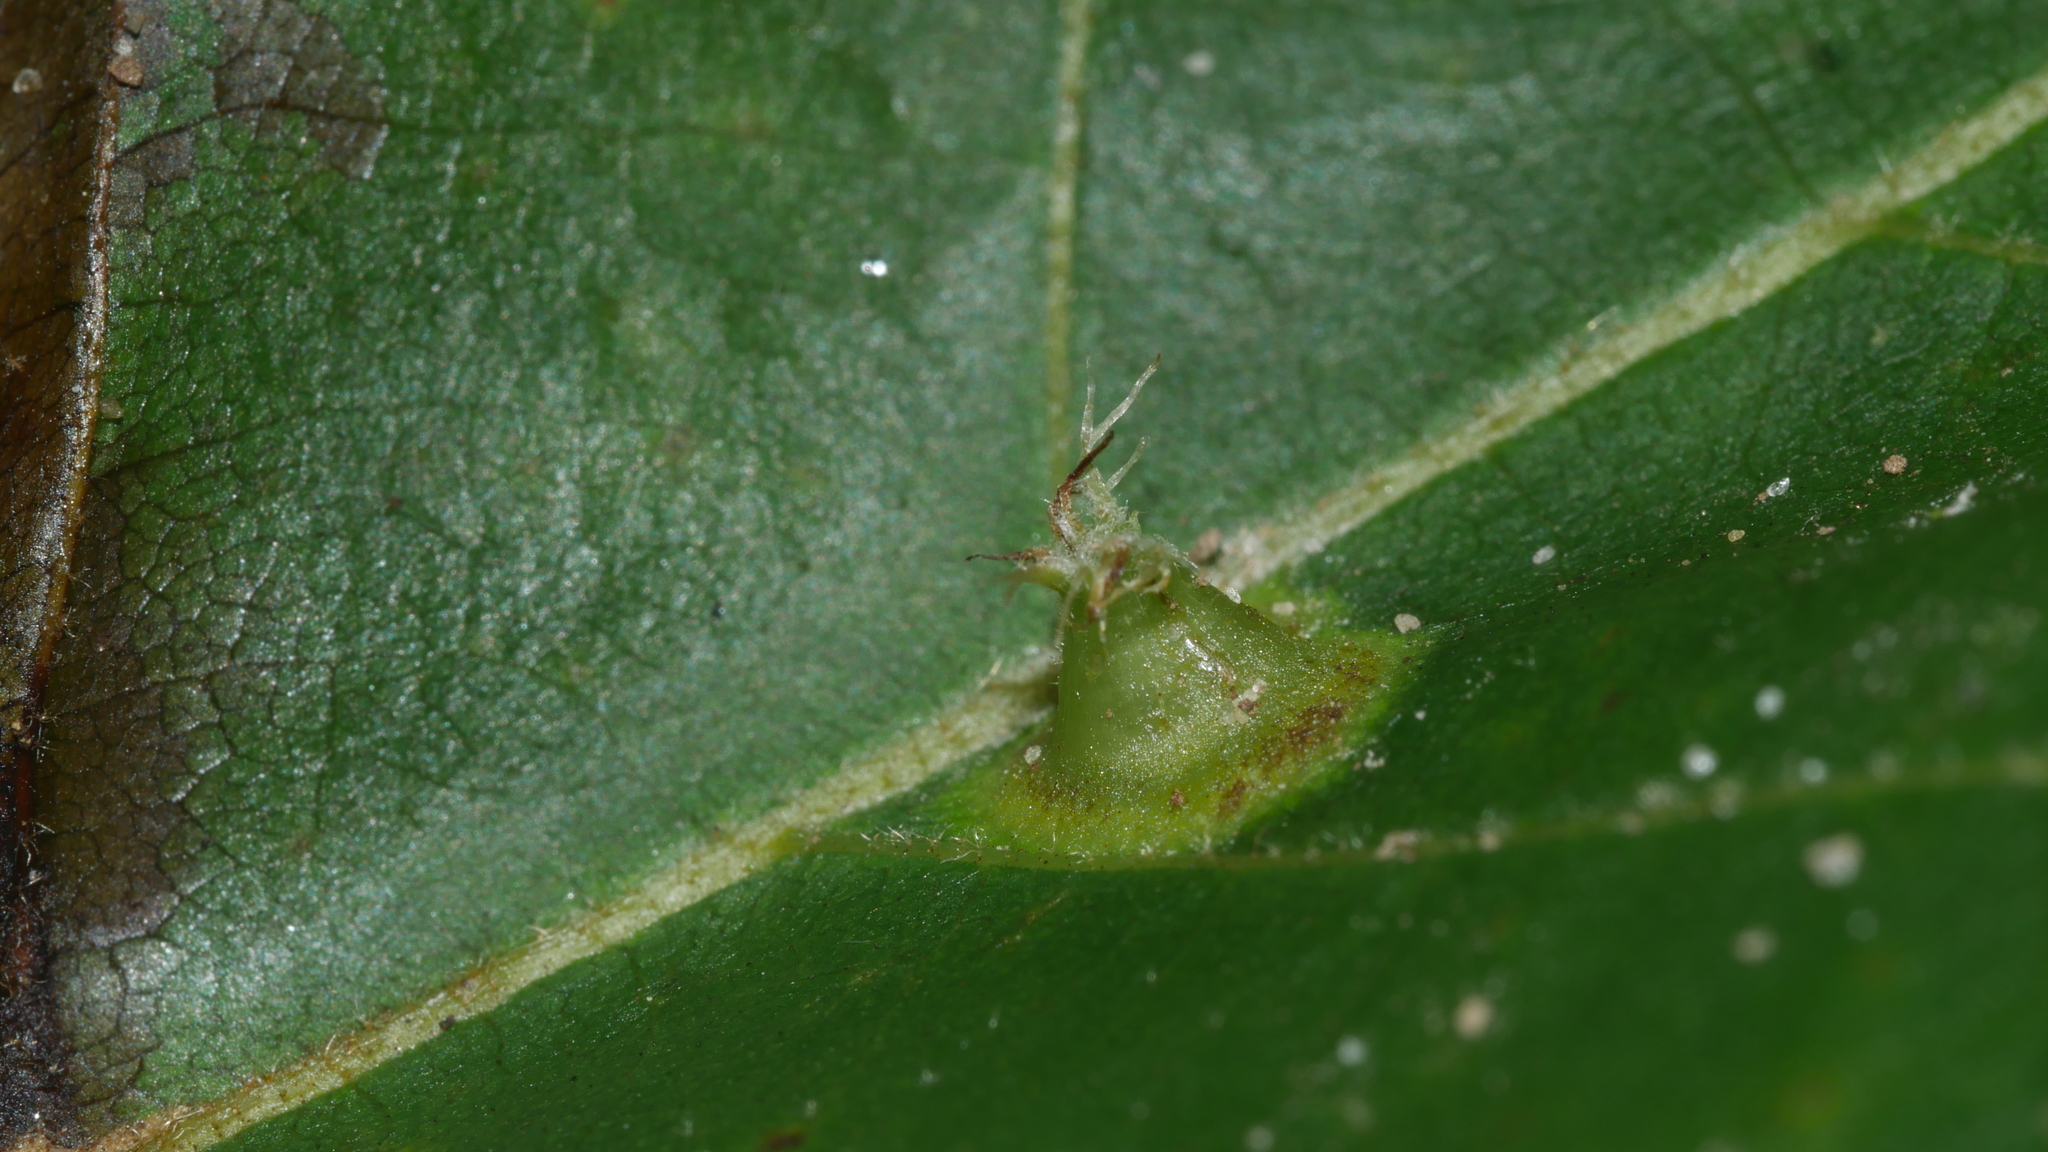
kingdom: Animalia
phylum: Arthropoda
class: Insecta
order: Hemiptera
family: Phylloxeridae
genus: Phylloxera
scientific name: Phylloxera caryaefoliae
